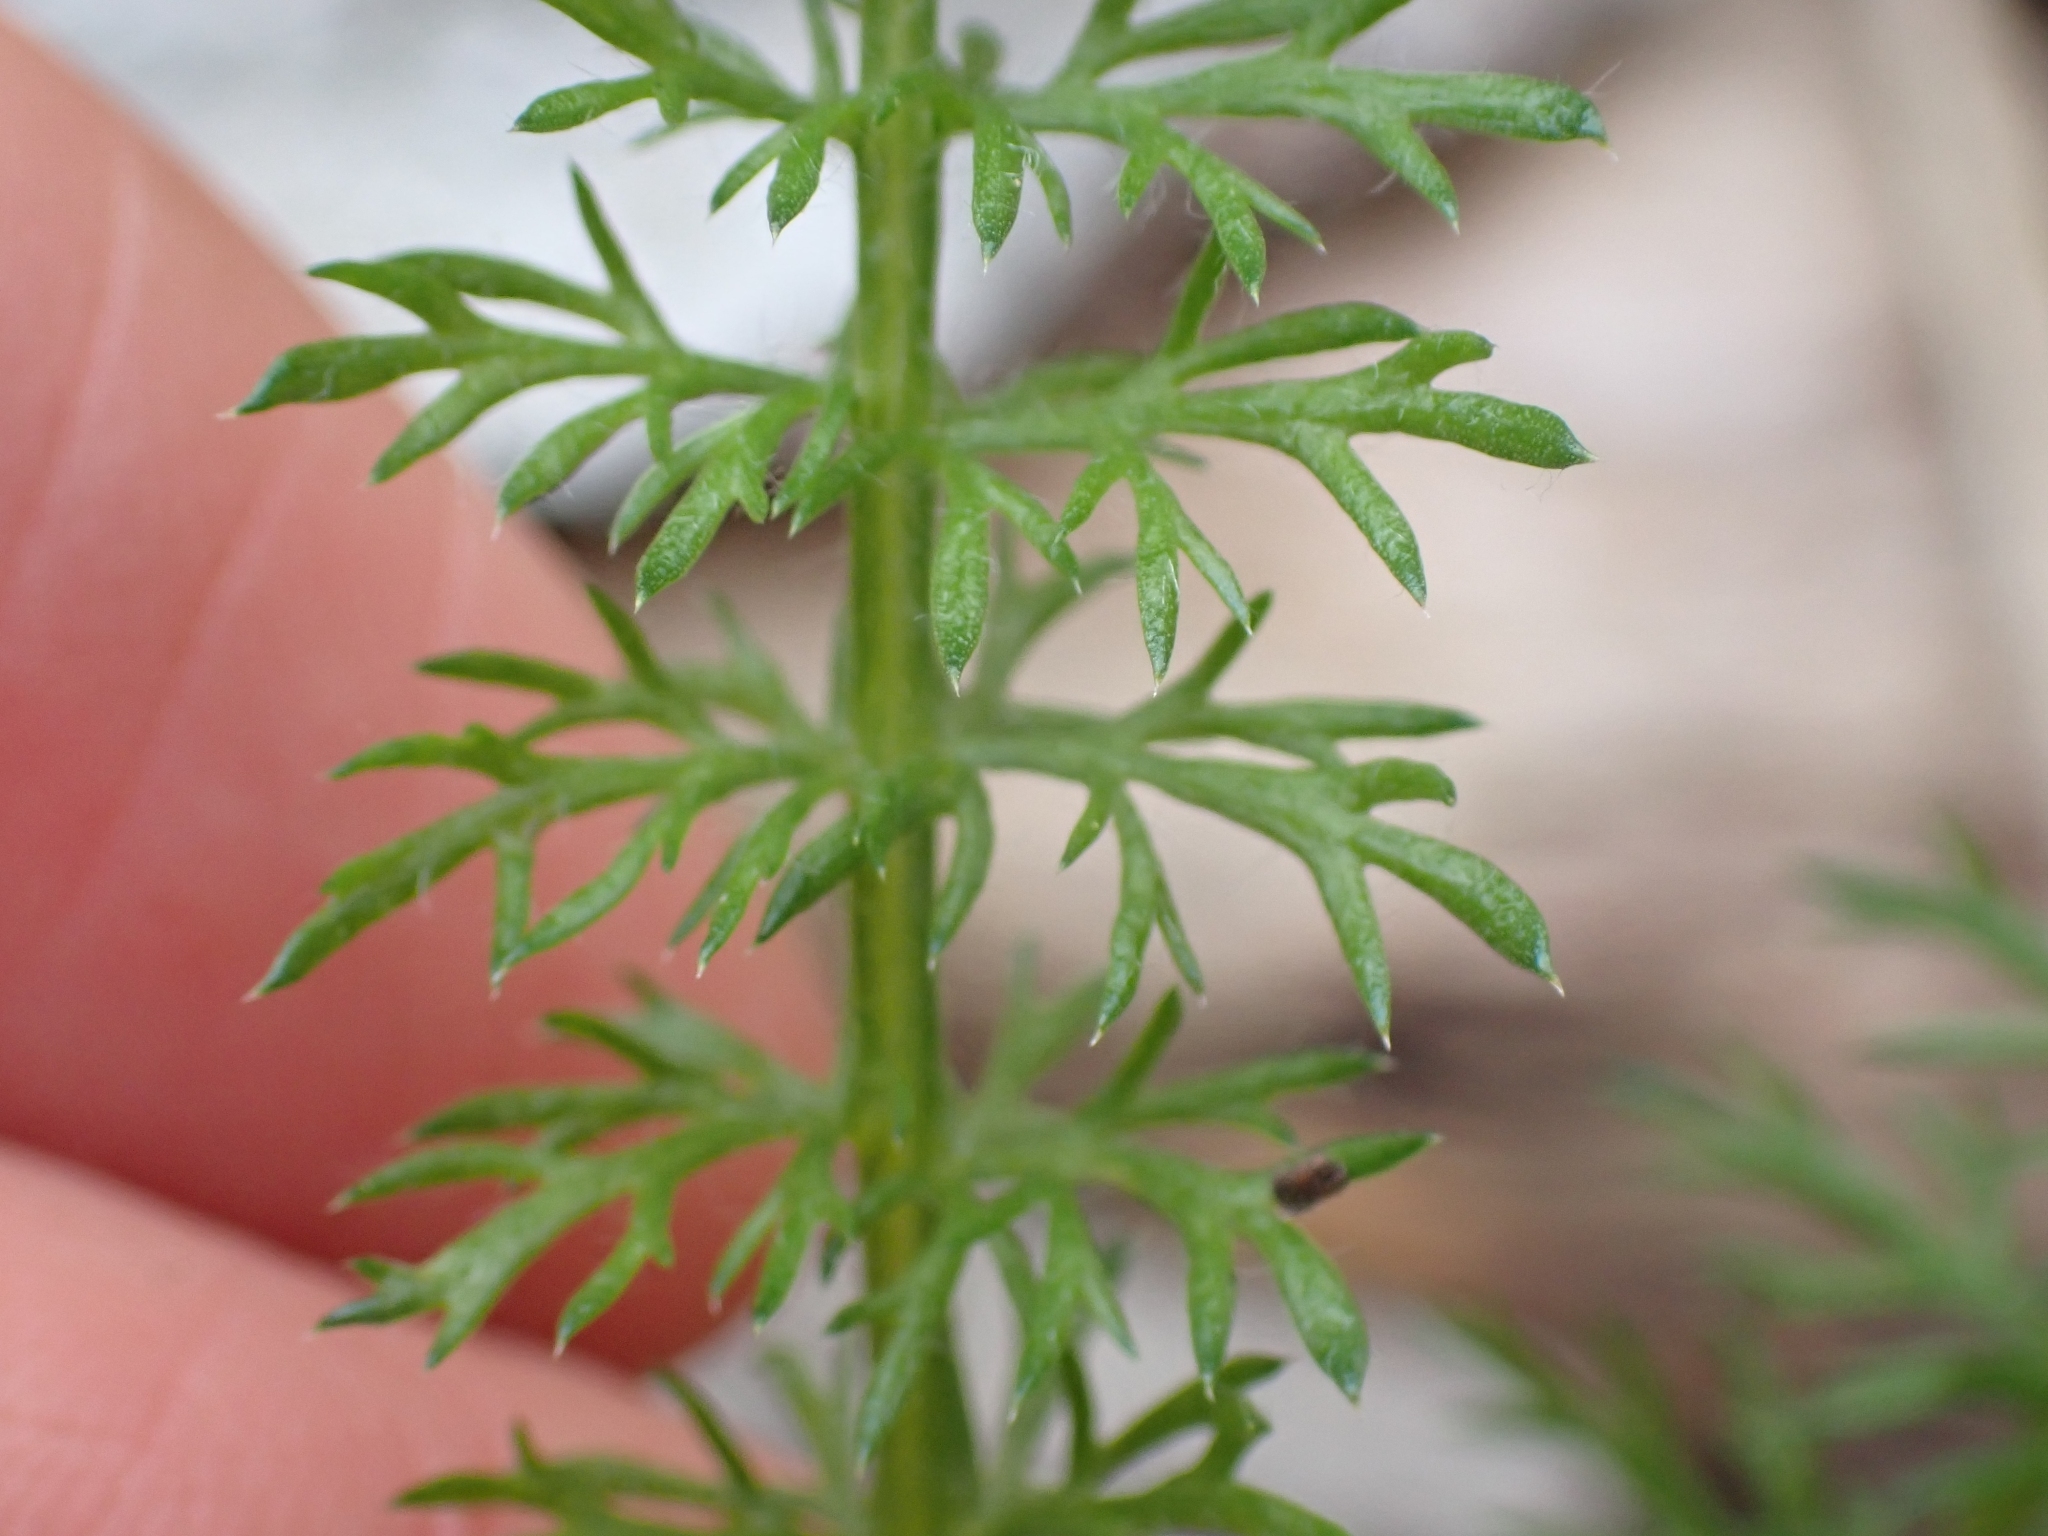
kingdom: Plantae
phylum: Tracheophyta
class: Magnoliopsida
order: Asterales
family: Asteraceae
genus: Achillea
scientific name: Achillea millefolium
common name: Yarrow
